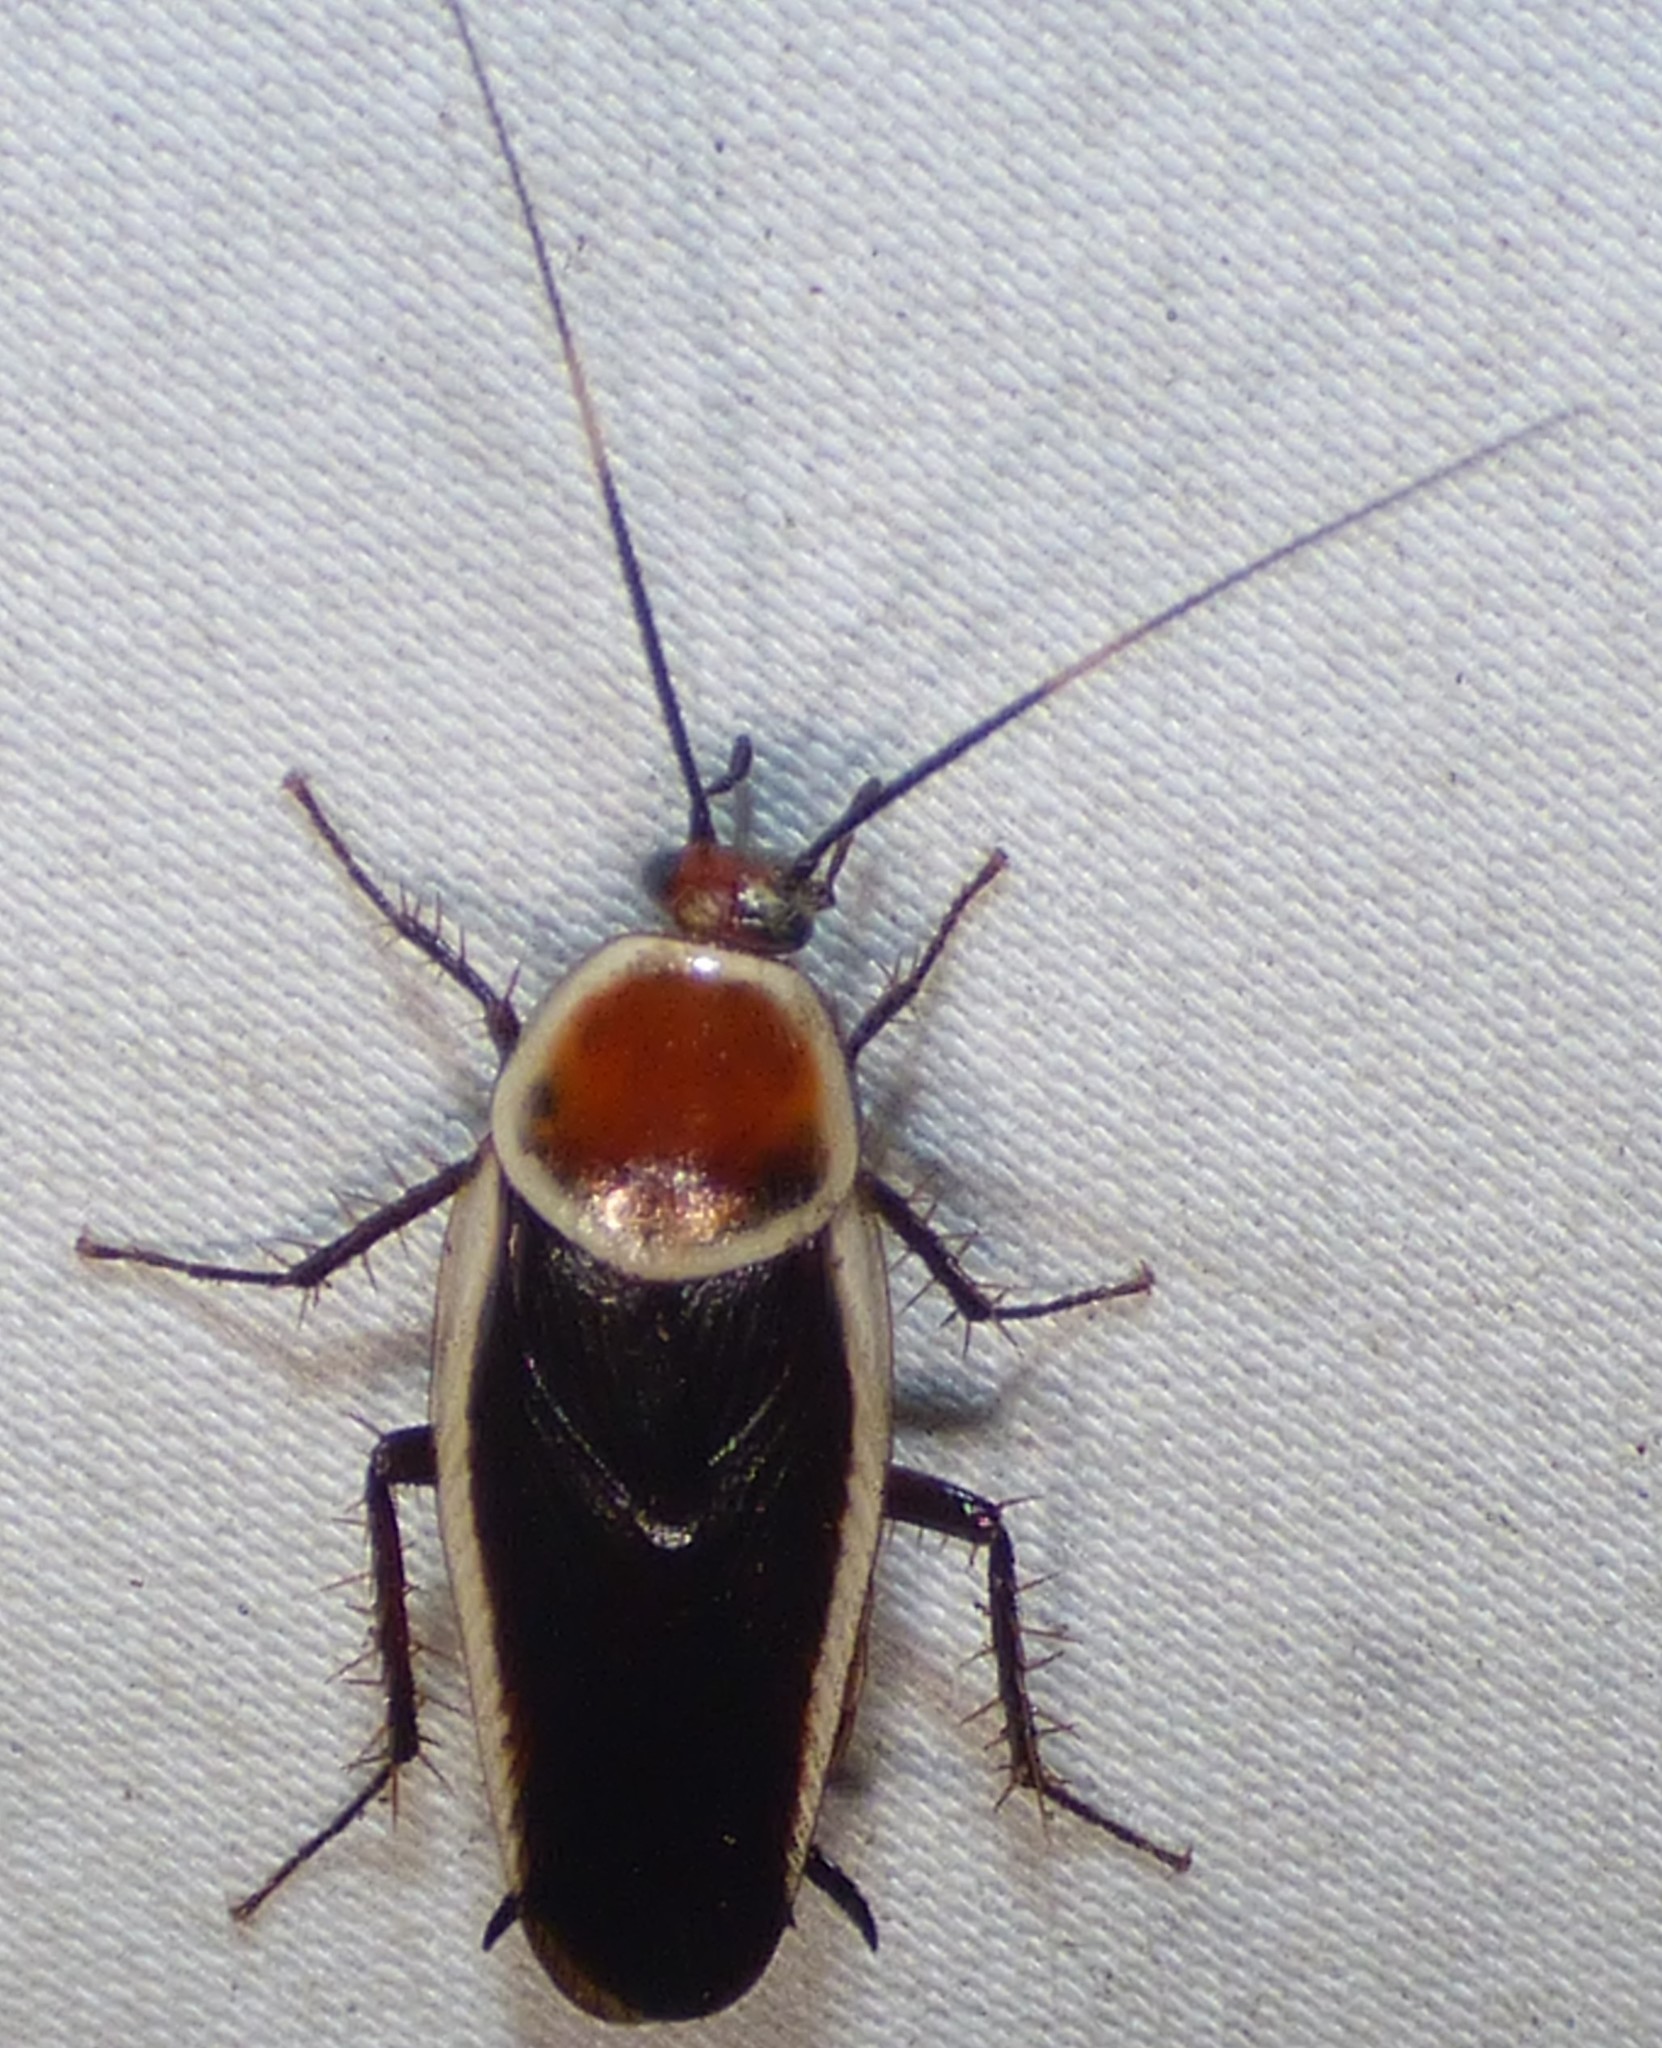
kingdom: Animalia
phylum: Arthropoda
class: Insecta
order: Blattodea
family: Ectobiidae
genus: Pseudomops
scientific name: Pseudomops septentrionalis
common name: Pale-bordered field cockroach
